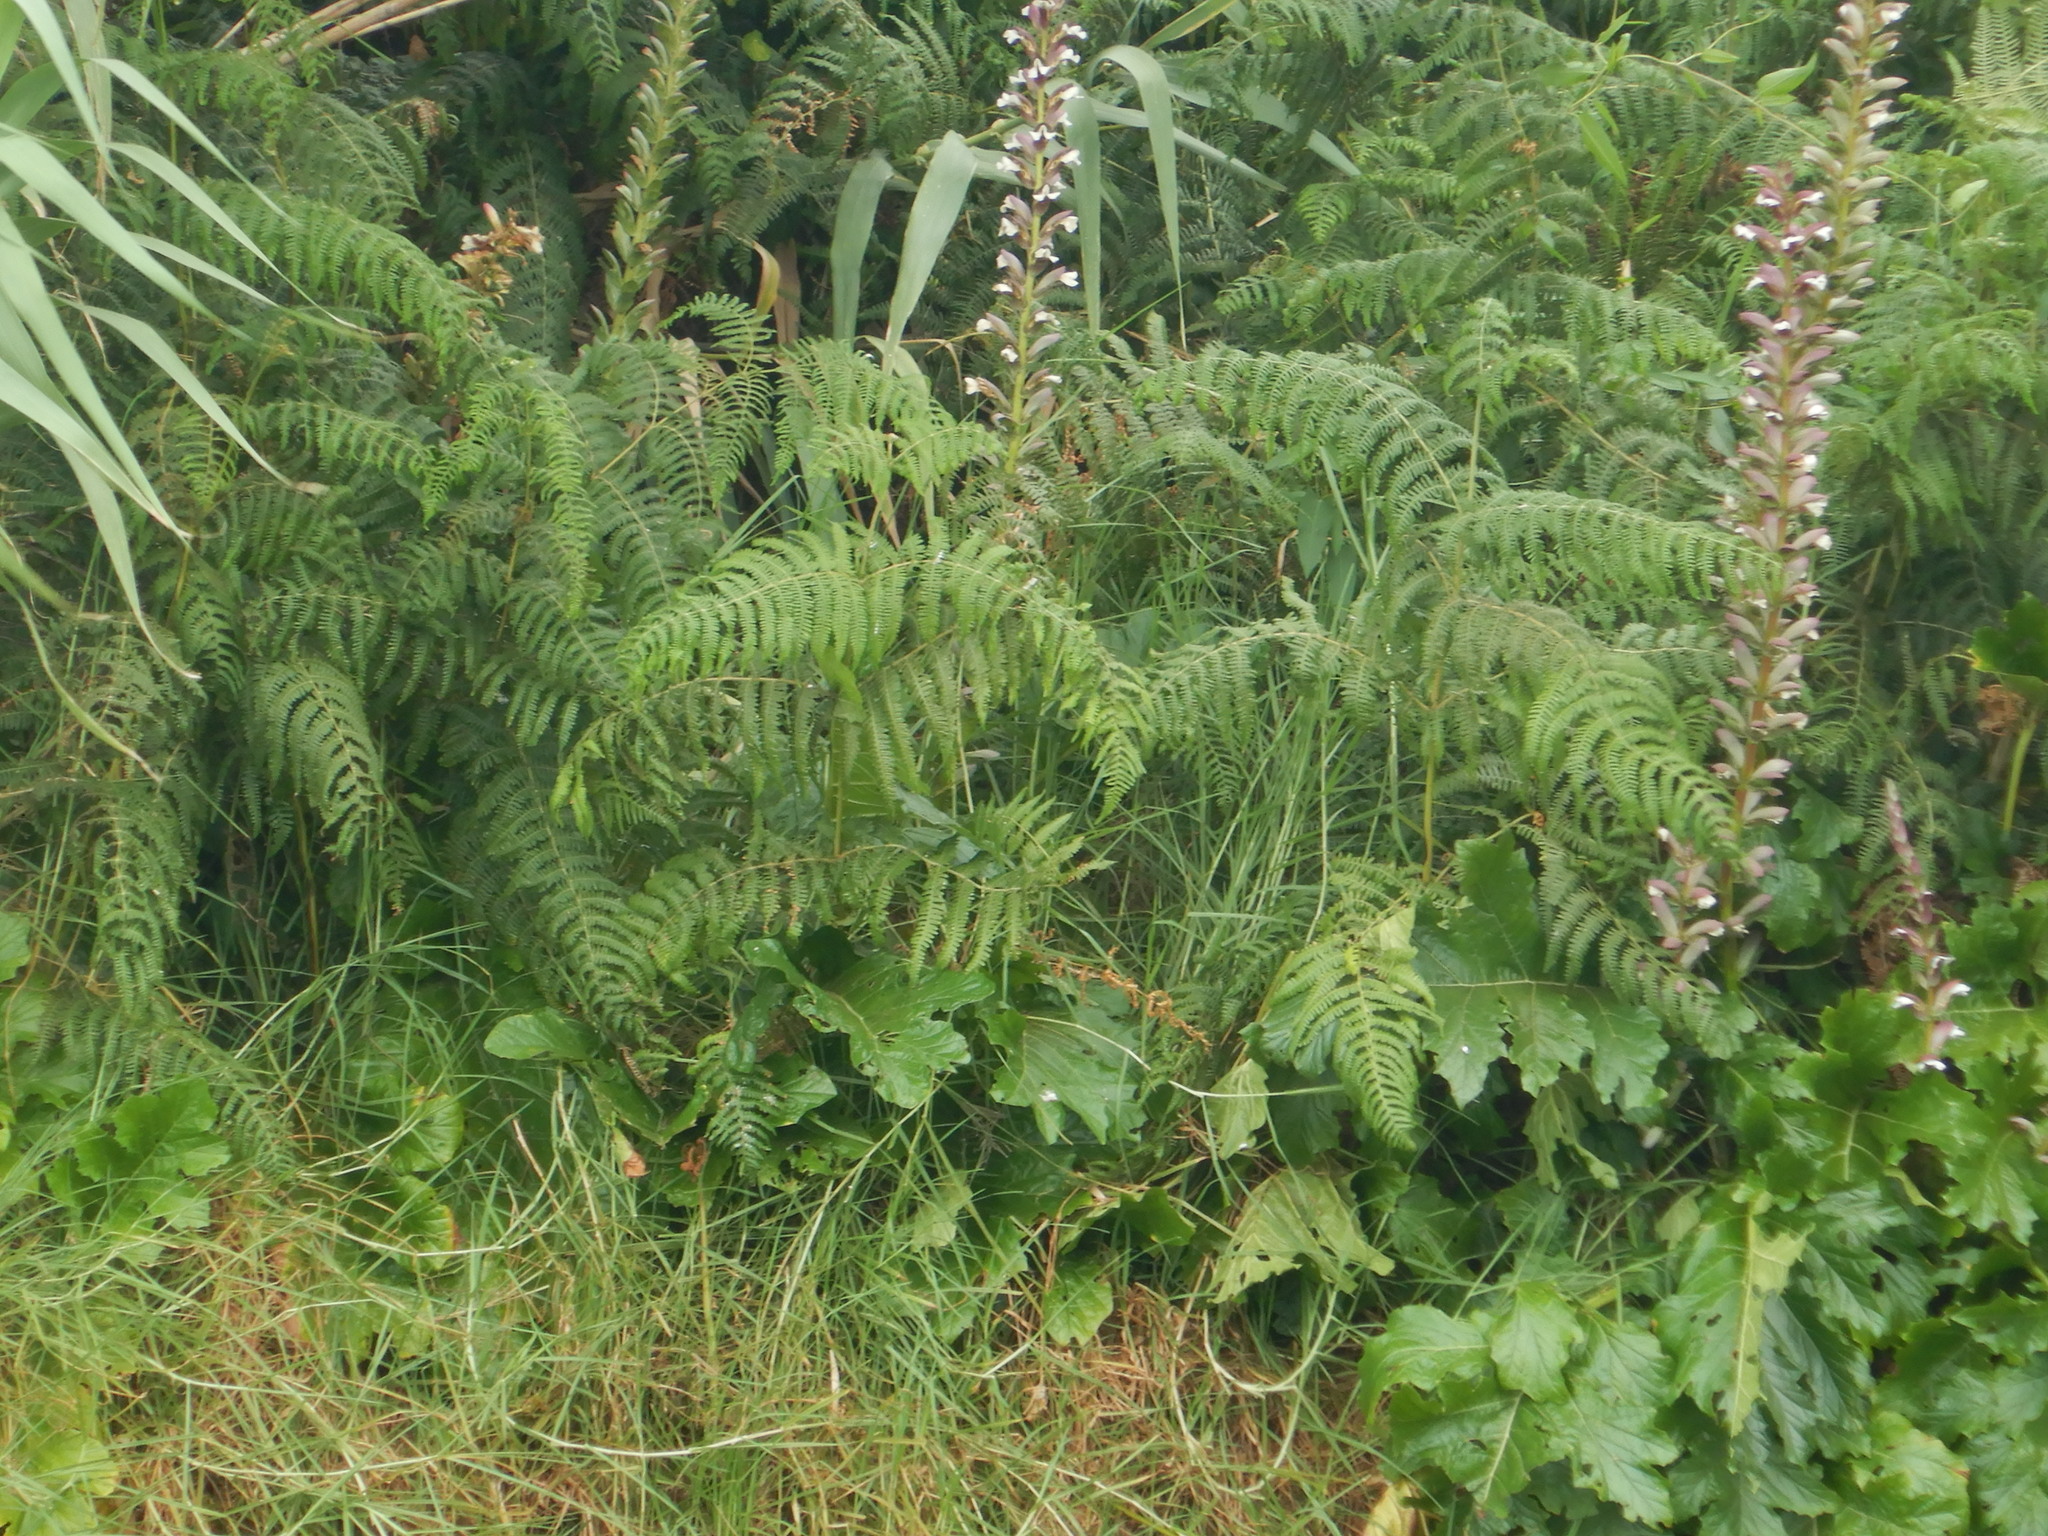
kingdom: Plantae
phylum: Tracheophyta
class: Polypodiopsida
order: Polypodiales
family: Dennstaedtiaceae
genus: Pteridium
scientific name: Pteridium aquilinum
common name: Bracken
